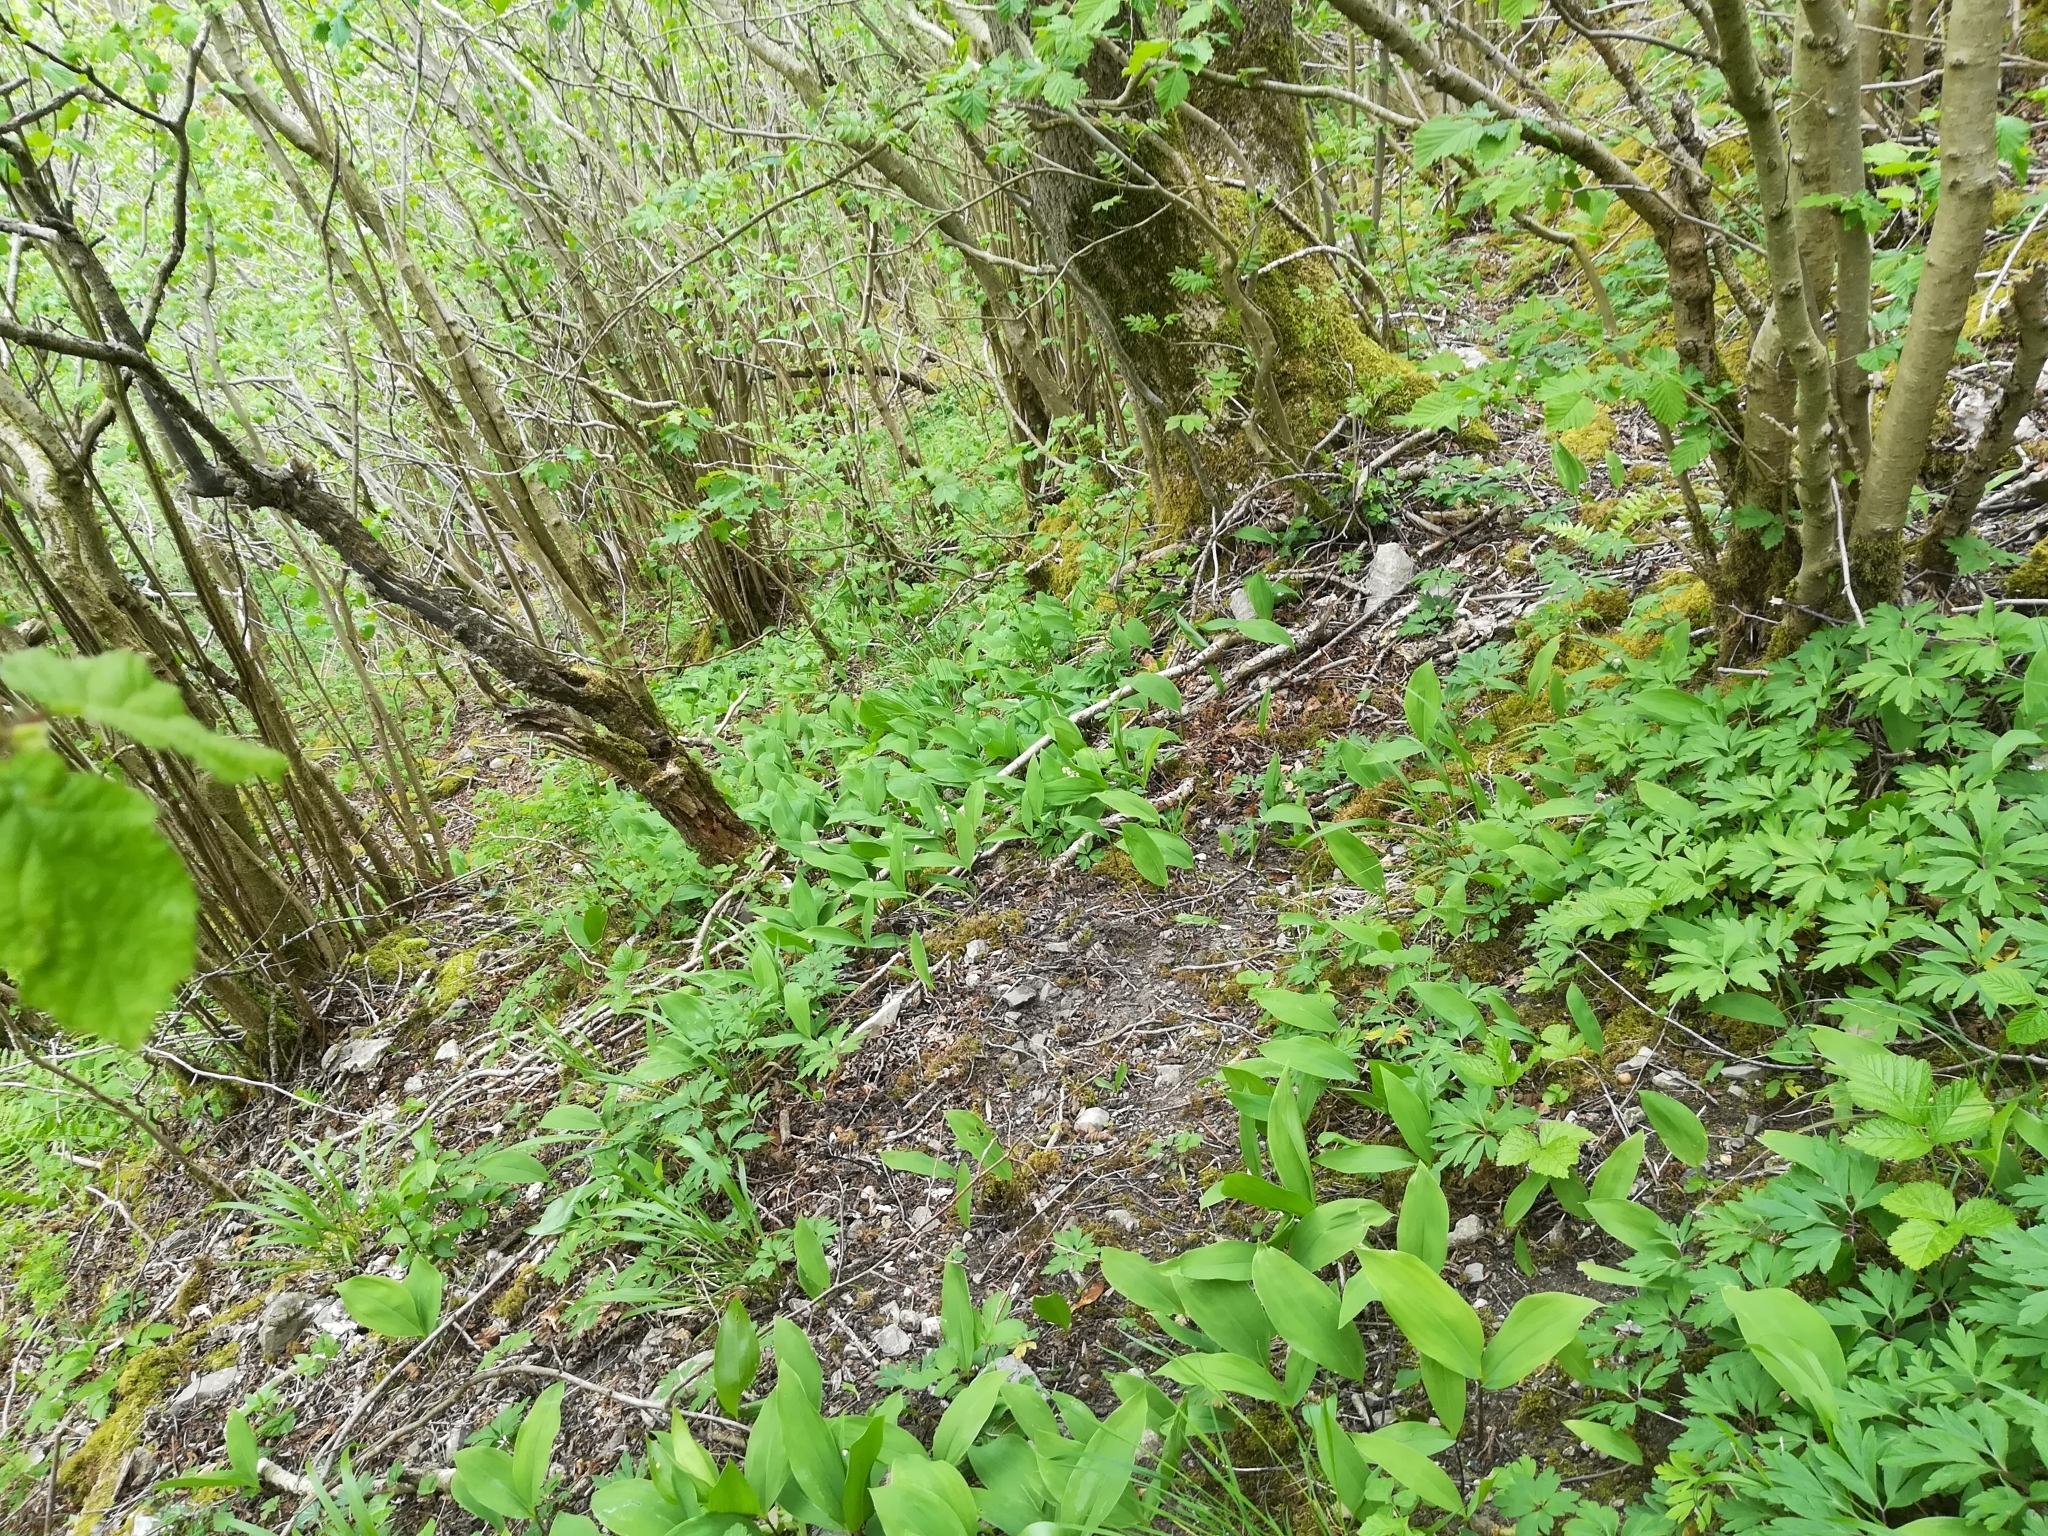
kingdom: Plantae
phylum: Tracheophyta
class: Liliopsida
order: Asparagales
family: Asparagaceae
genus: Convallaria
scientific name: Convallaria majalis
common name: Lily-of-the-valley
